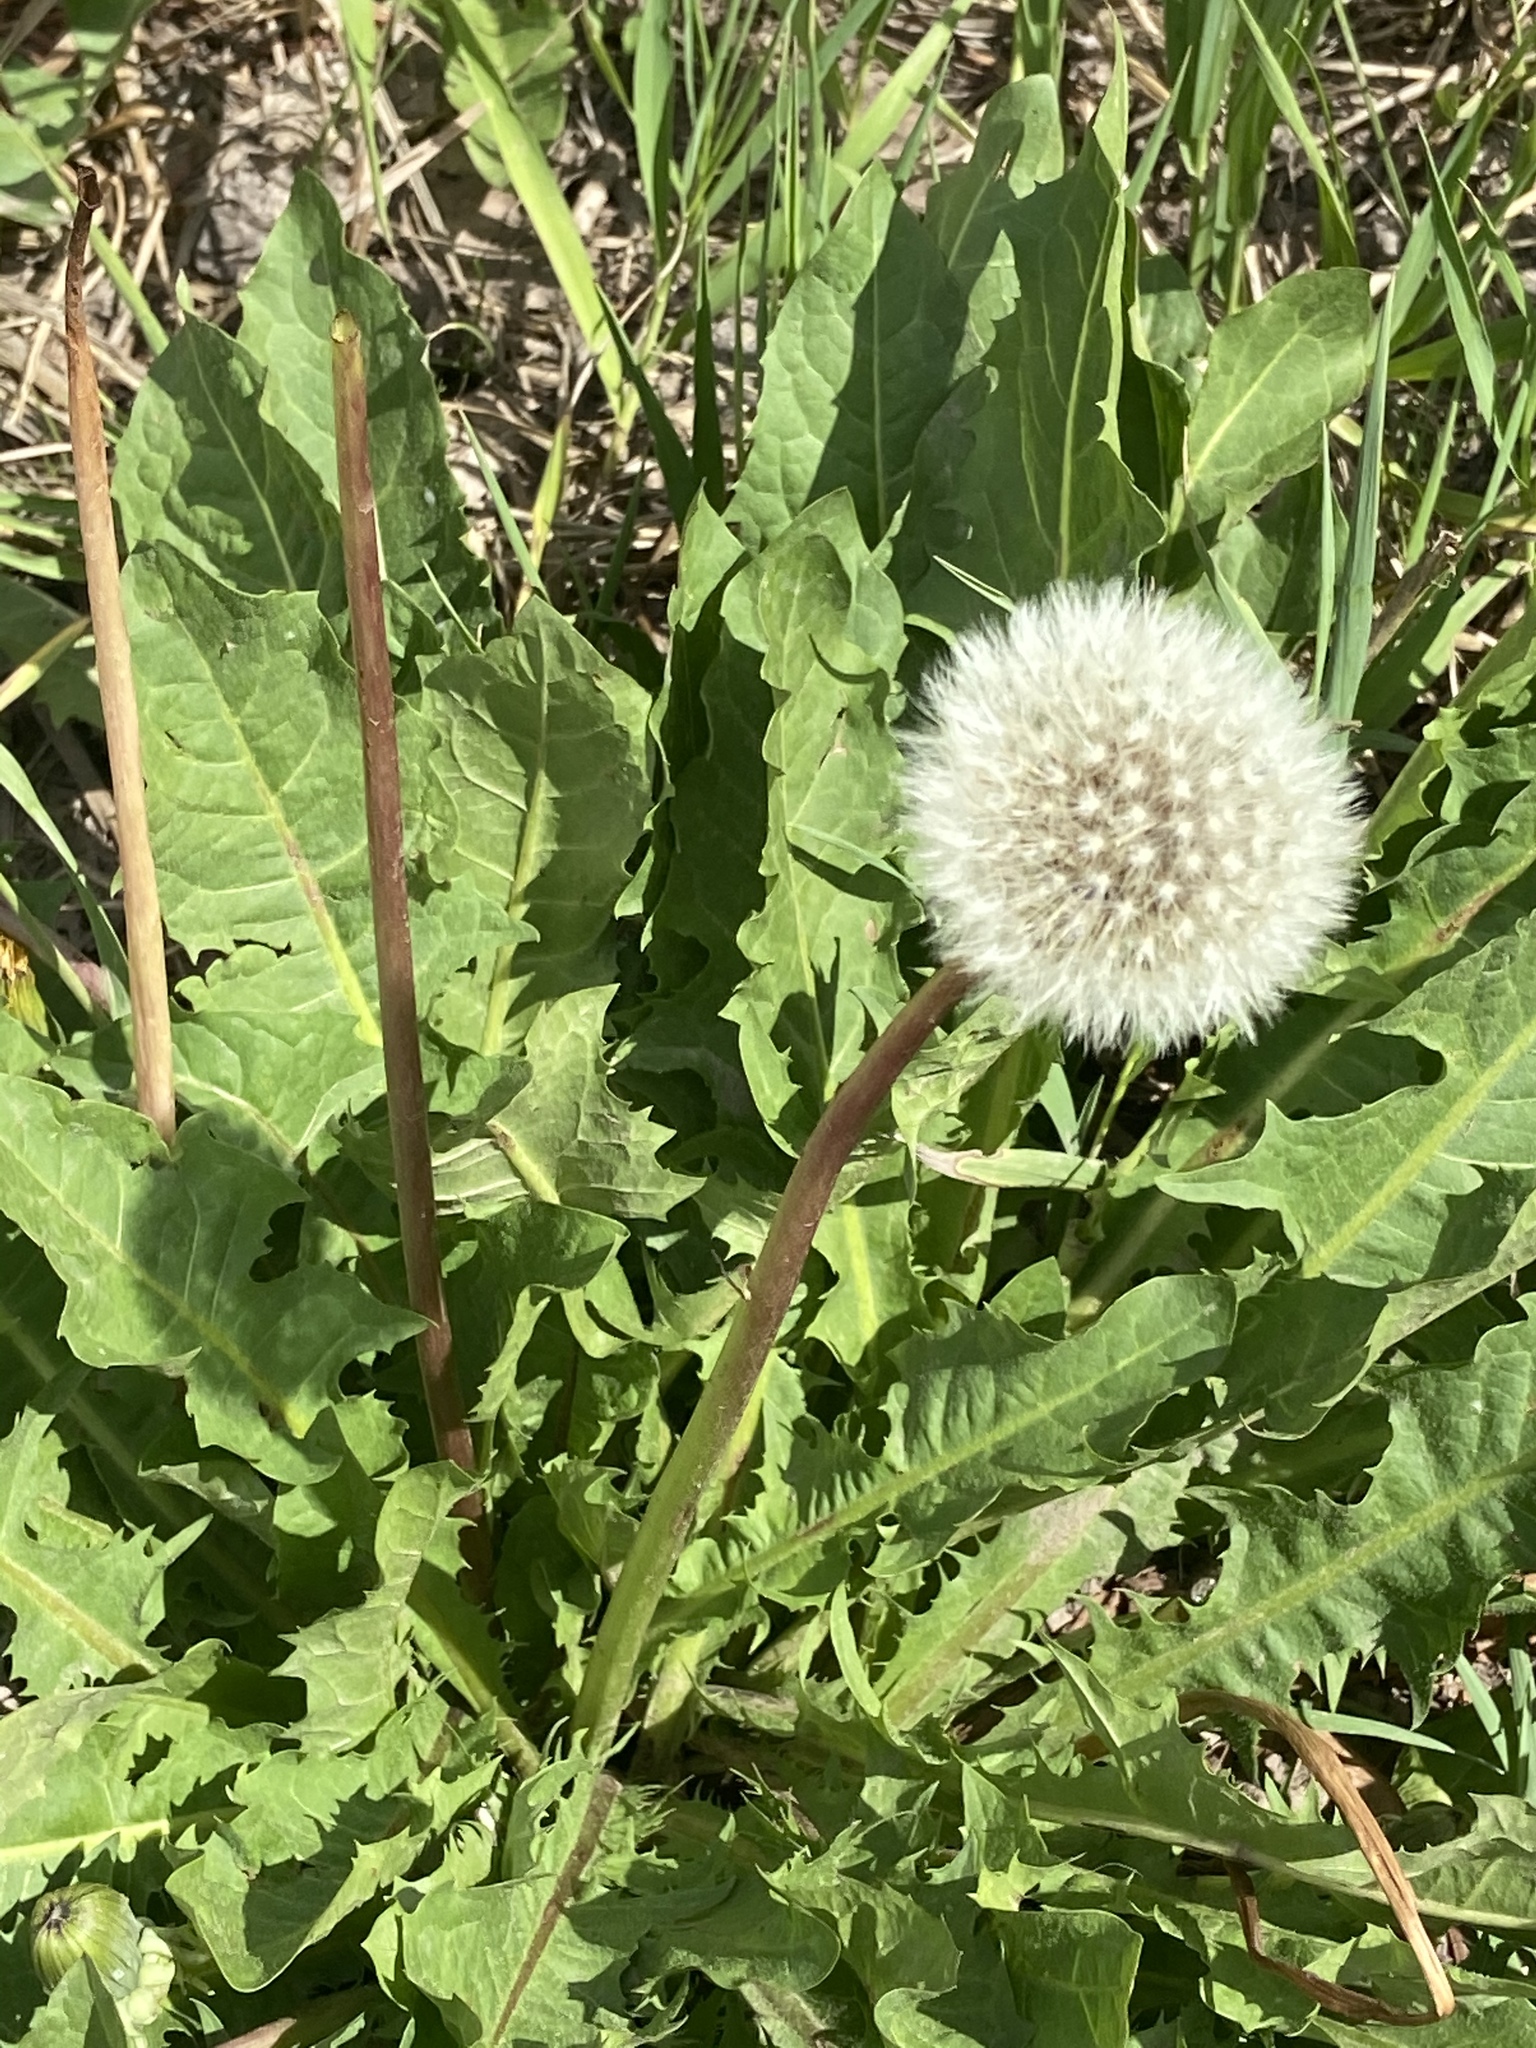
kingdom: Plantae
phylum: Tracheophyta
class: Magnoliopsida
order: Asterales
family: Asteraceae
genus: Taraxacum
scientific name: Taraxacum officinale
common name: Common dandelion
